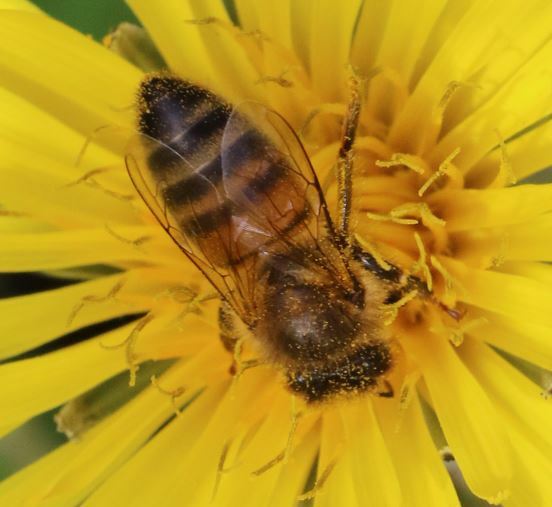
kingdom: Animalia
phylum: Arthropoda
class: Insecta
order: Hymenoptera
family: Apidae
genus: Apis
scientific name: Apis mellifera
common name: Honey bee
